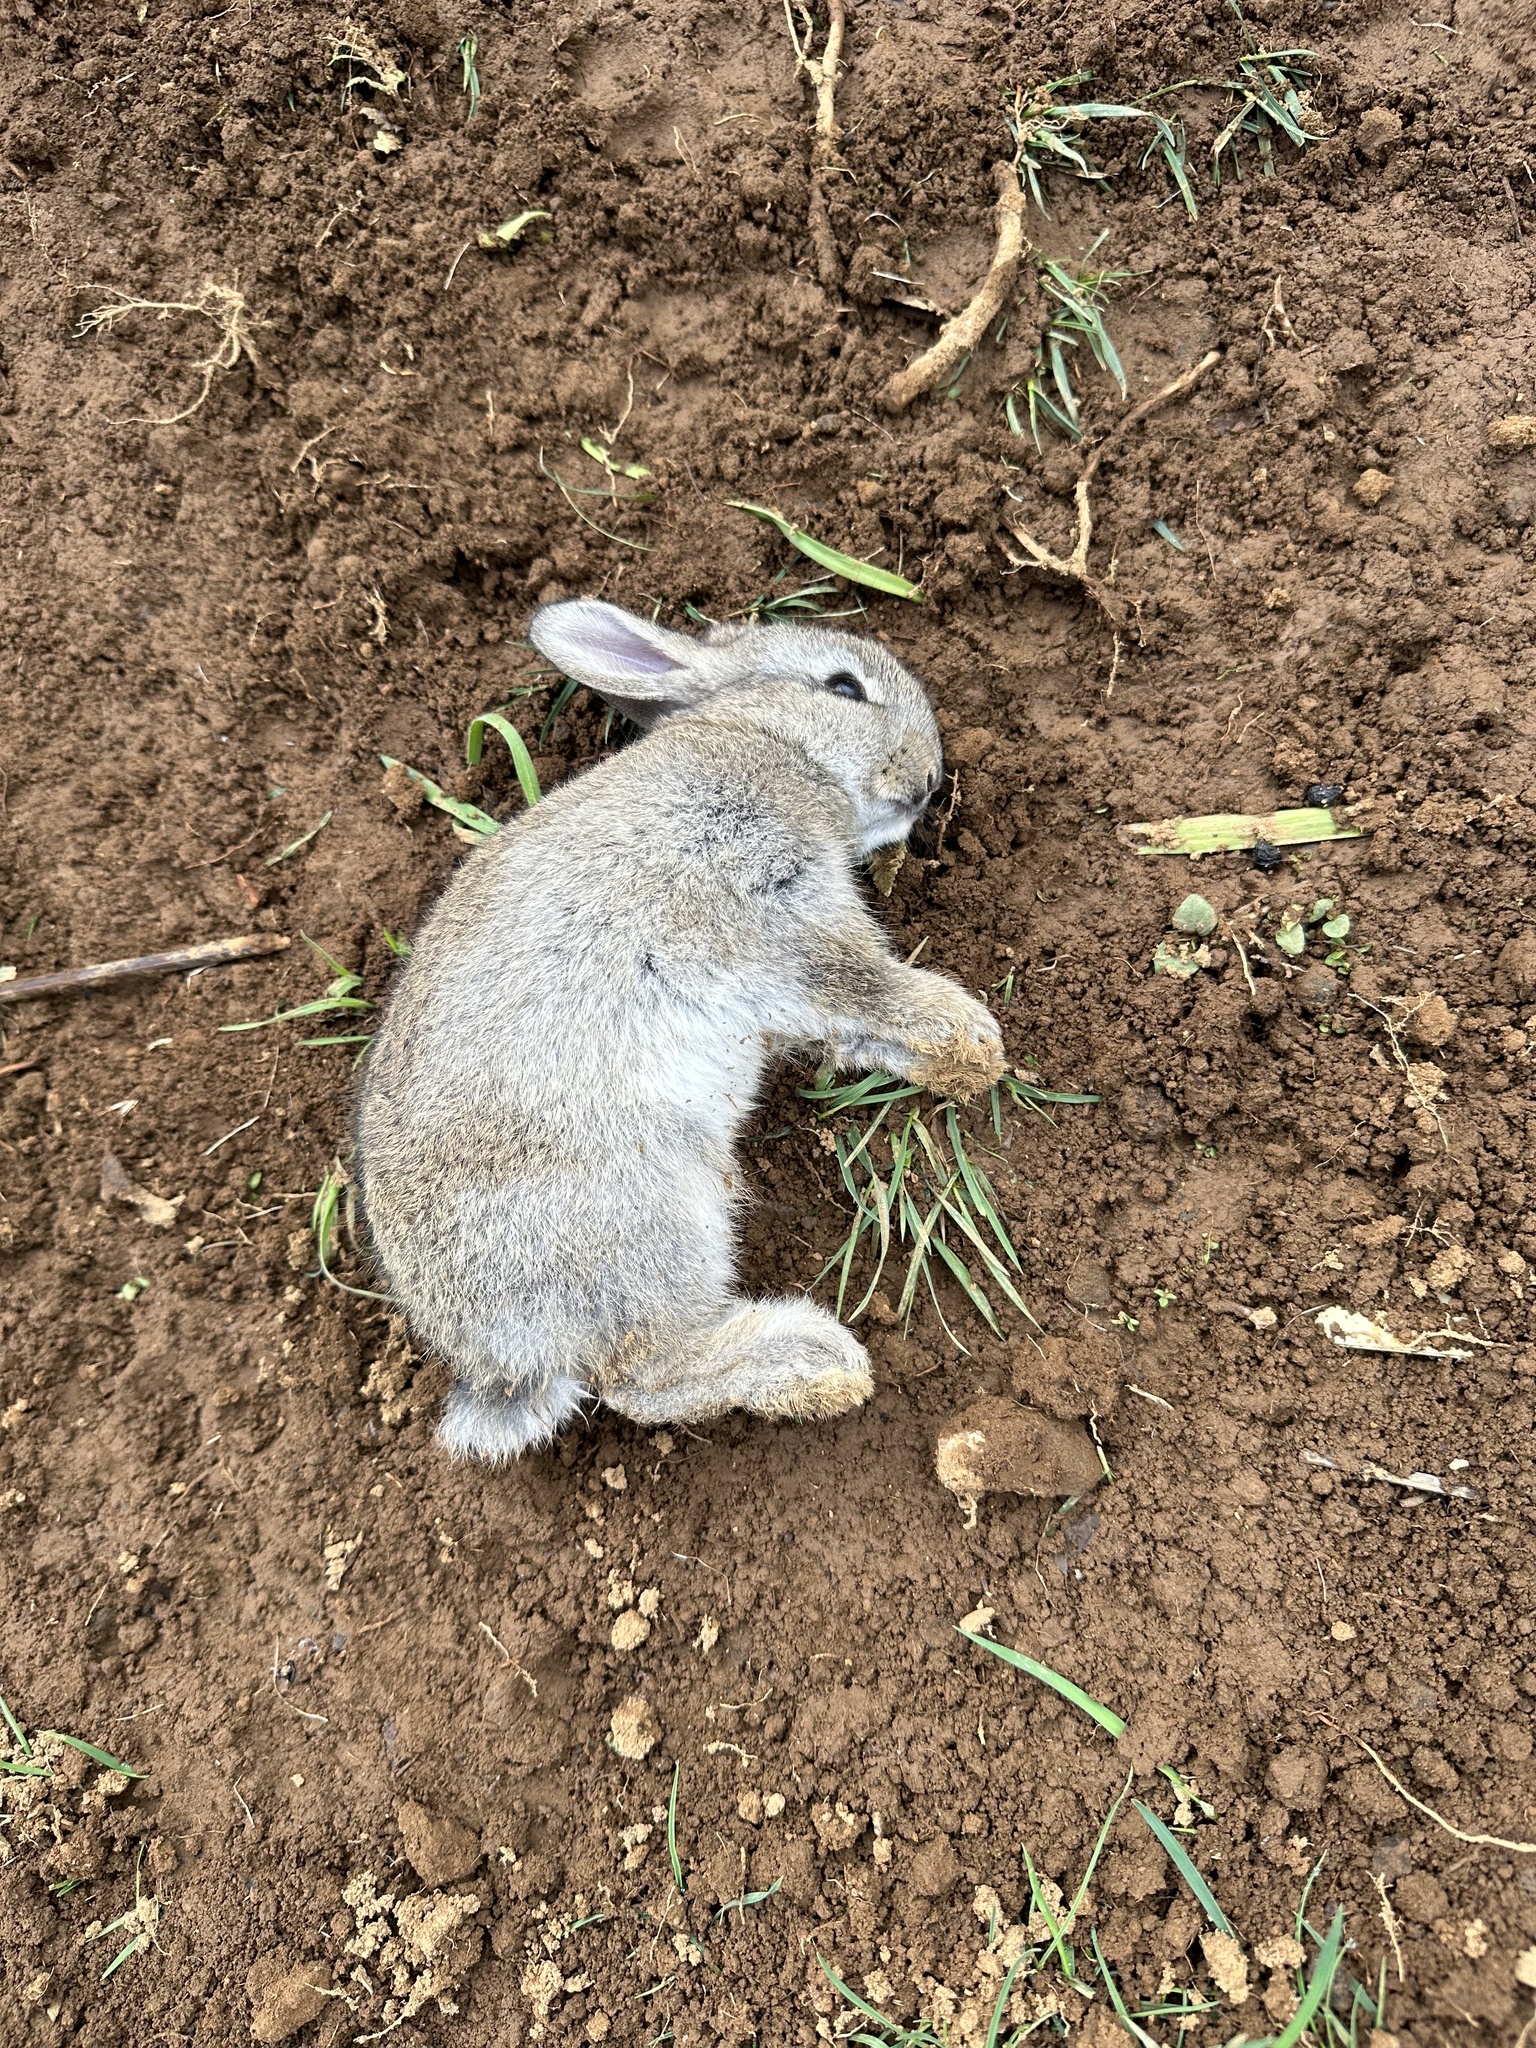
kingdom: Animalia
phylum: Chordata
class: Mammalia
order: Lagomorpha
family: Leporidae
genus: Oryctolagus
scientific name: Oryctolagus cuniculus
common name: European rabbit
